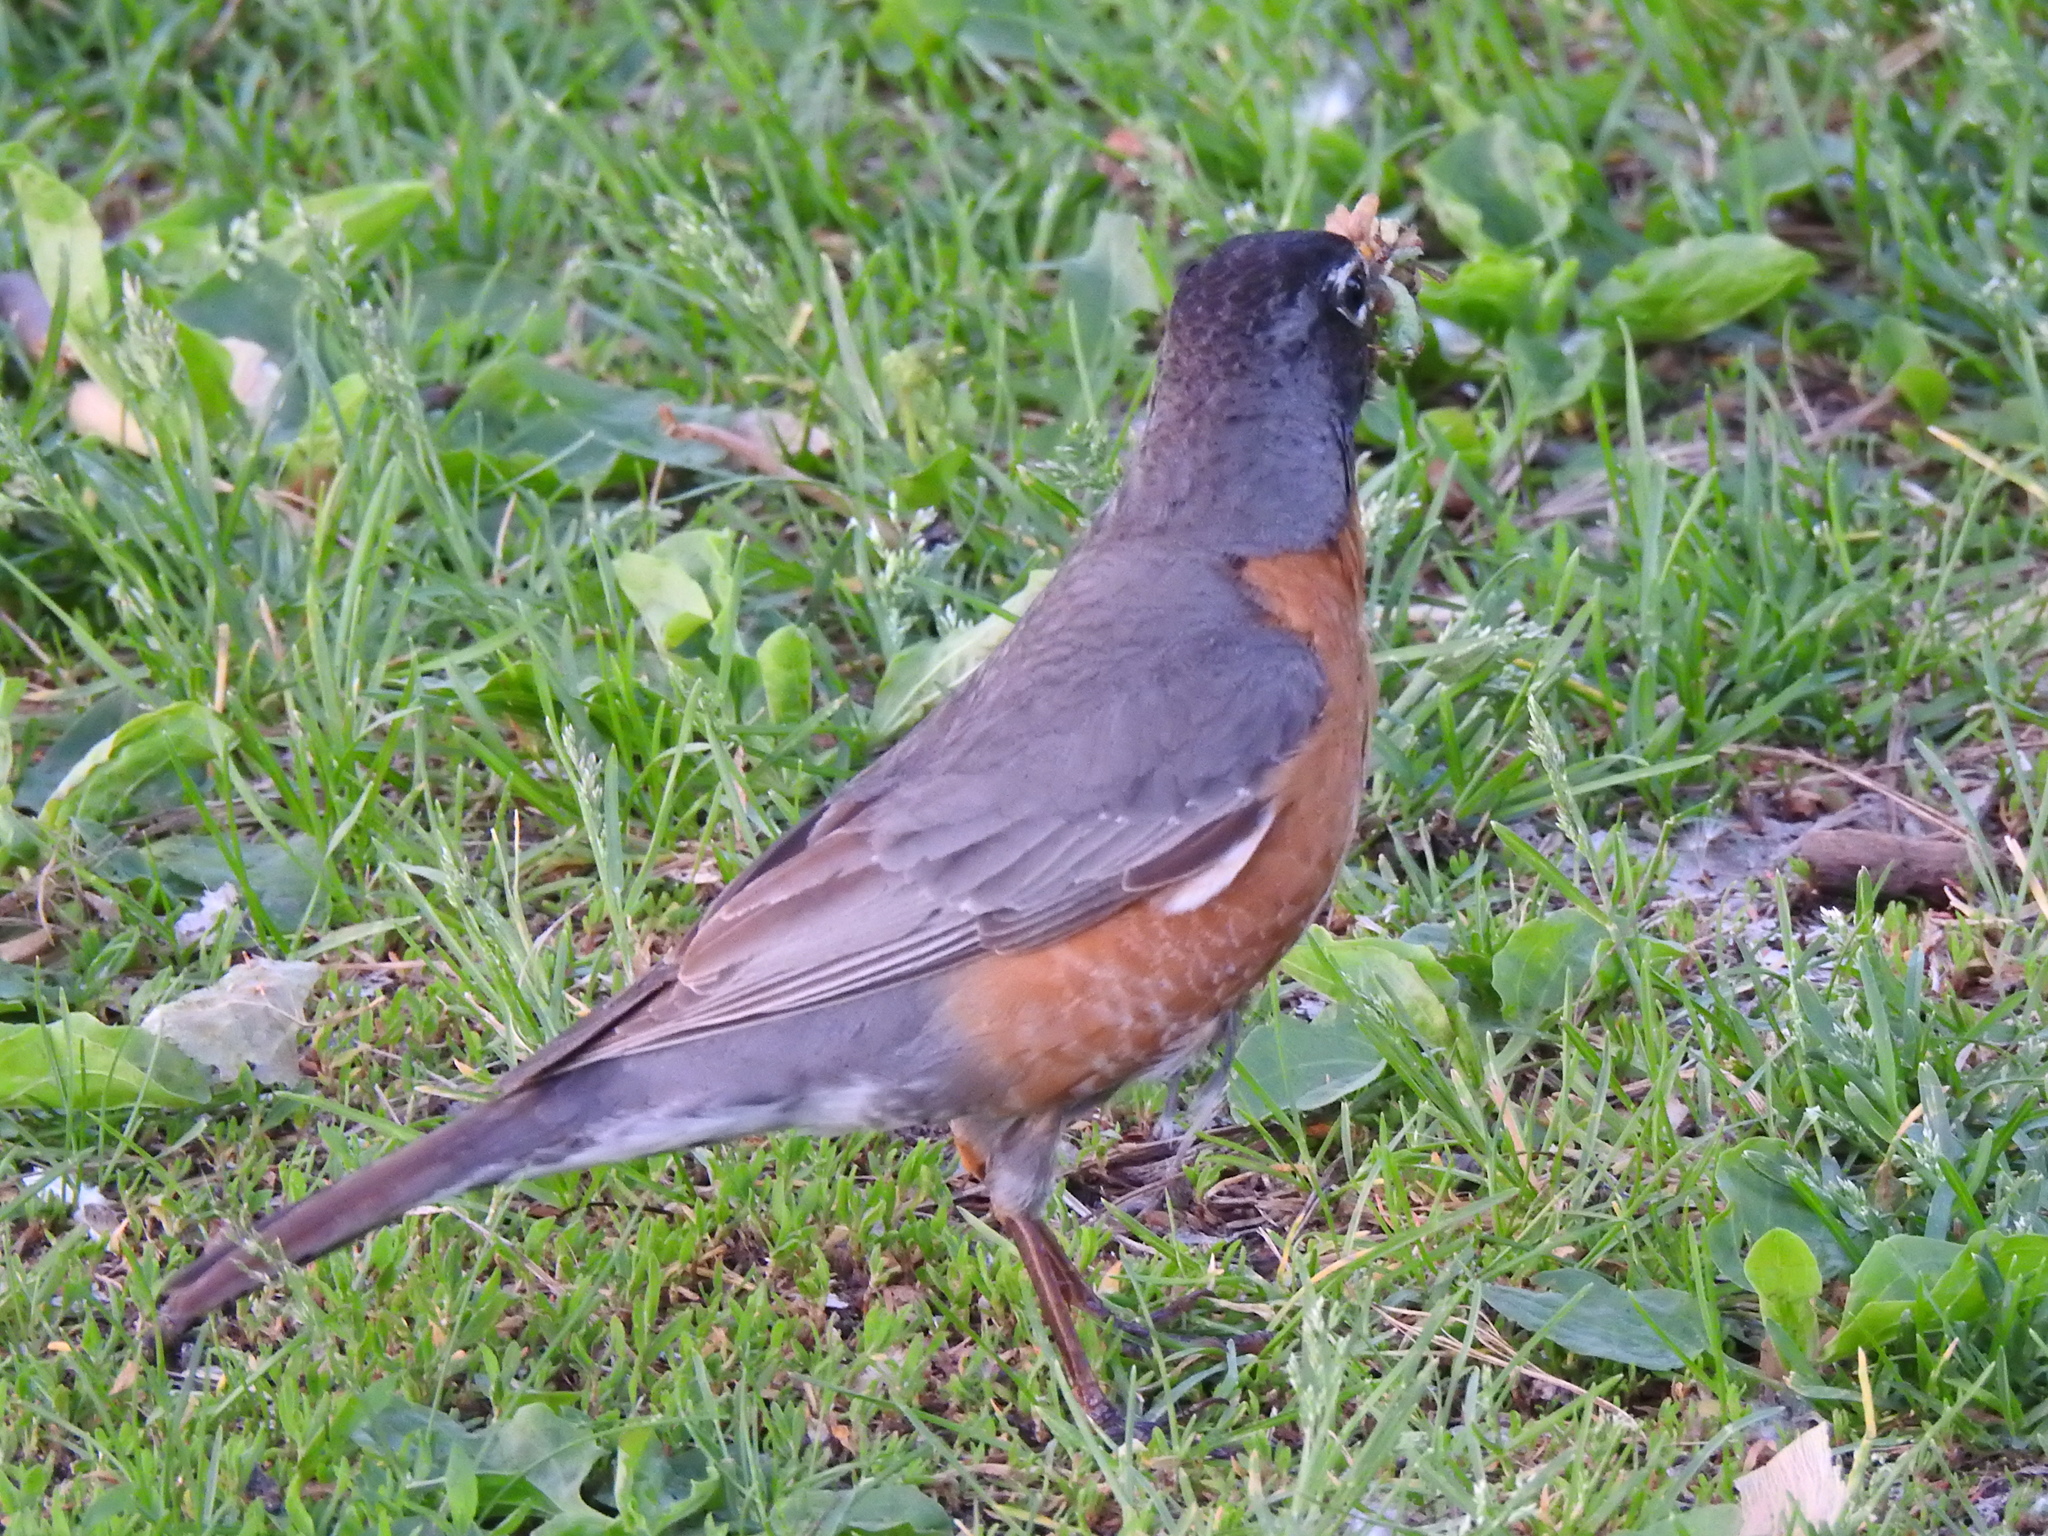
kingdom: Animalia
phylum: Chordata
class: Aves
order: Passeriformes
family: Turdidae
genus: Turdus
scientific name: Turdus migratorius
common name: American robin
